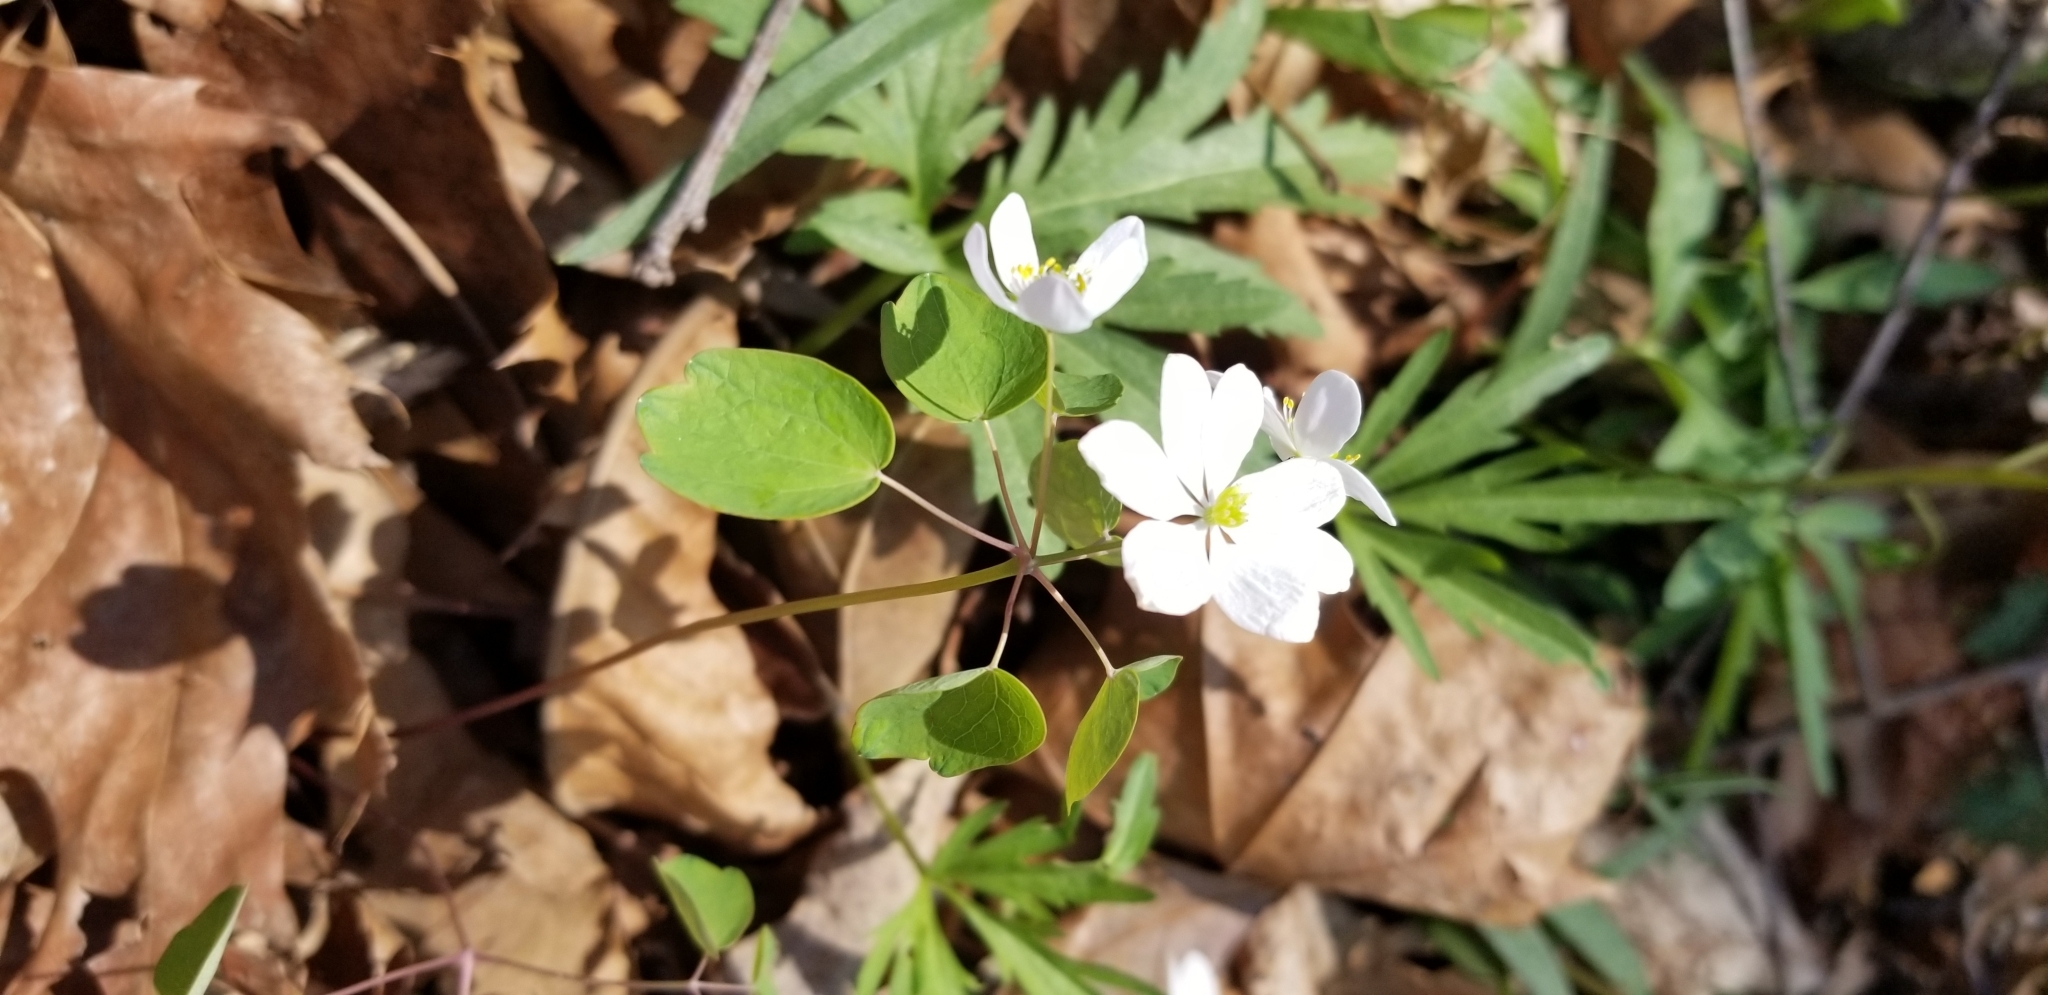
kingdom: Plantae
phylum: Tracheophyta
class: Magnoliopsida
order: Ranunculales
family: Ranunculaceae
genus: Thalictrum
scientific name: Thalictrum thalictroides
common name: Rue-anemone
